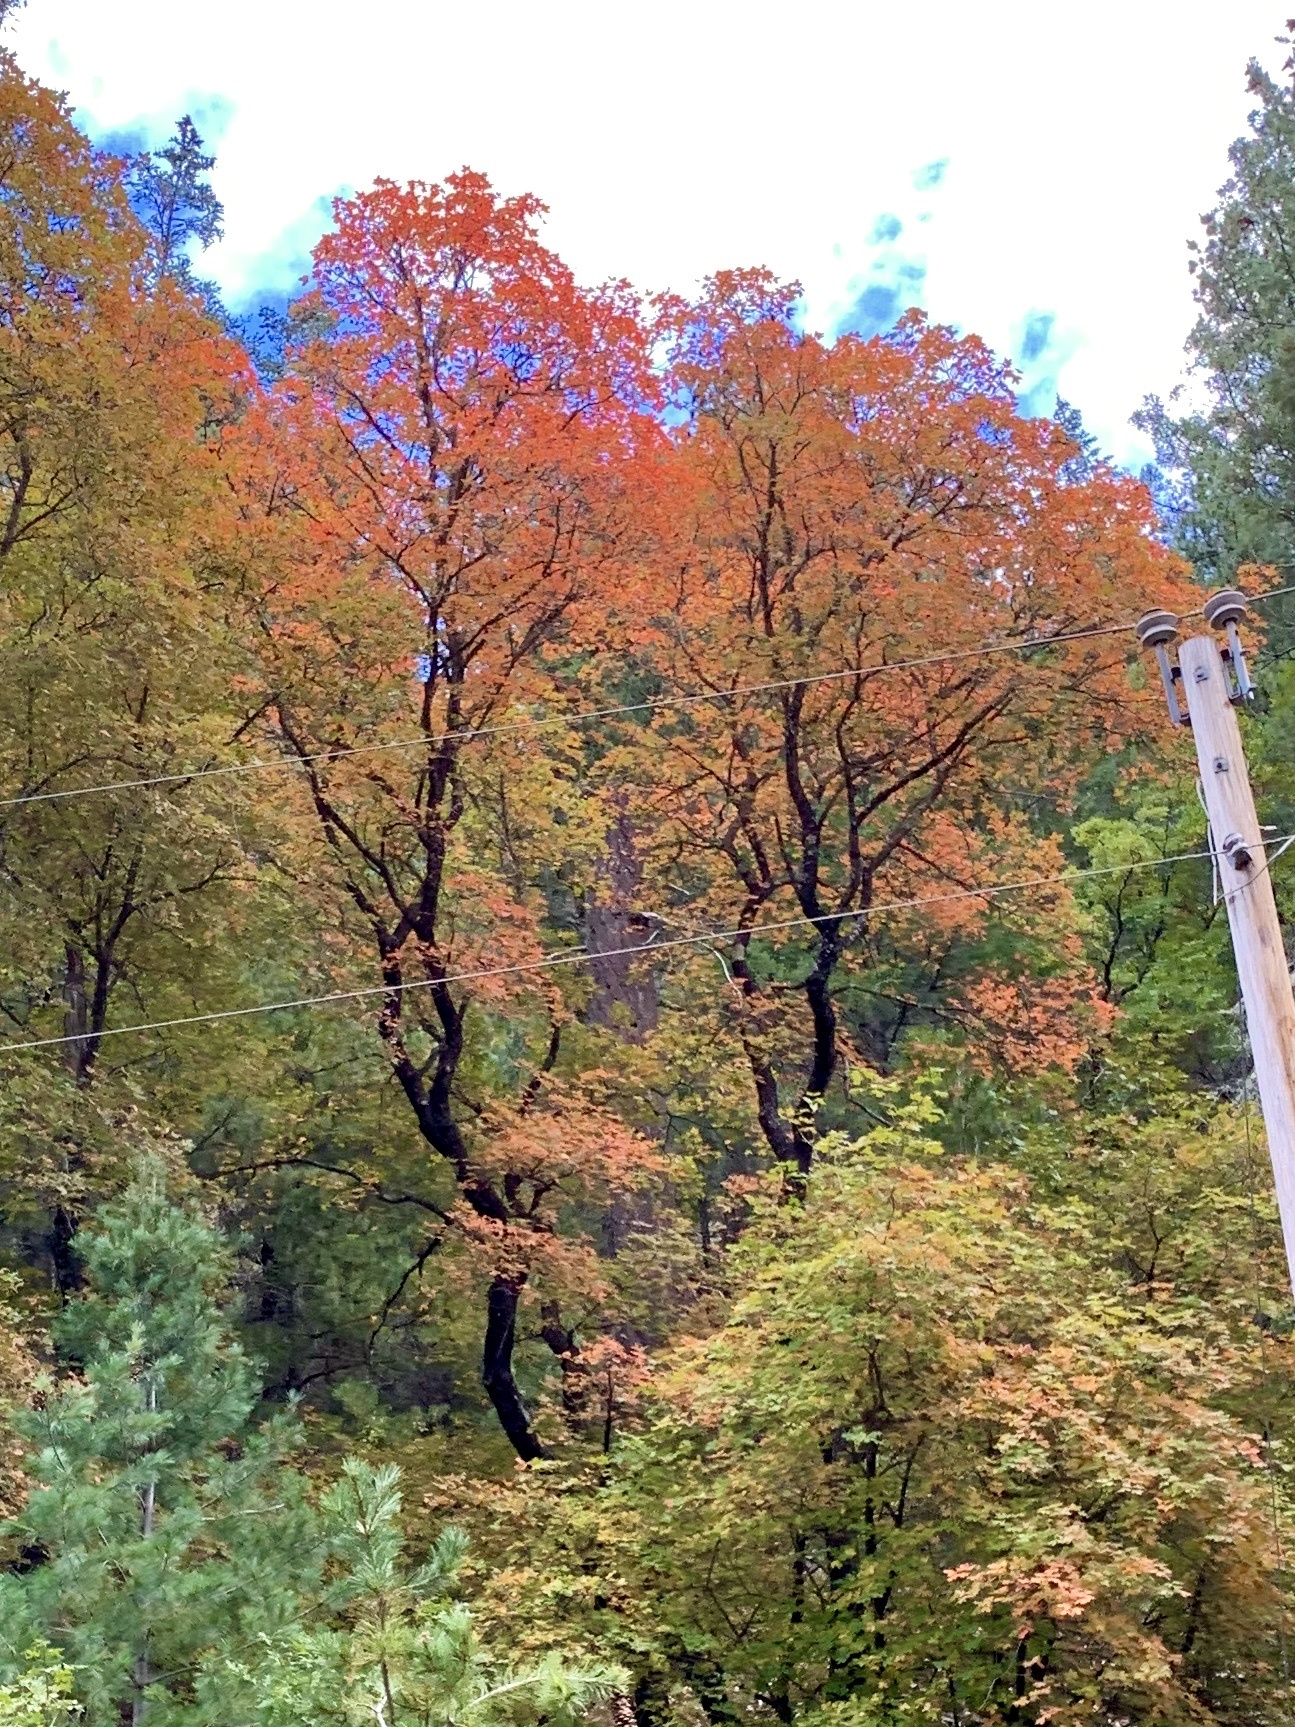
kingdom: Plantae
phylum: Tracheophyta
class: Magnoliopsida
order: Sapindales
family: Sapindaceae
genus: Acer
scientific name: Acer grandidentatum
